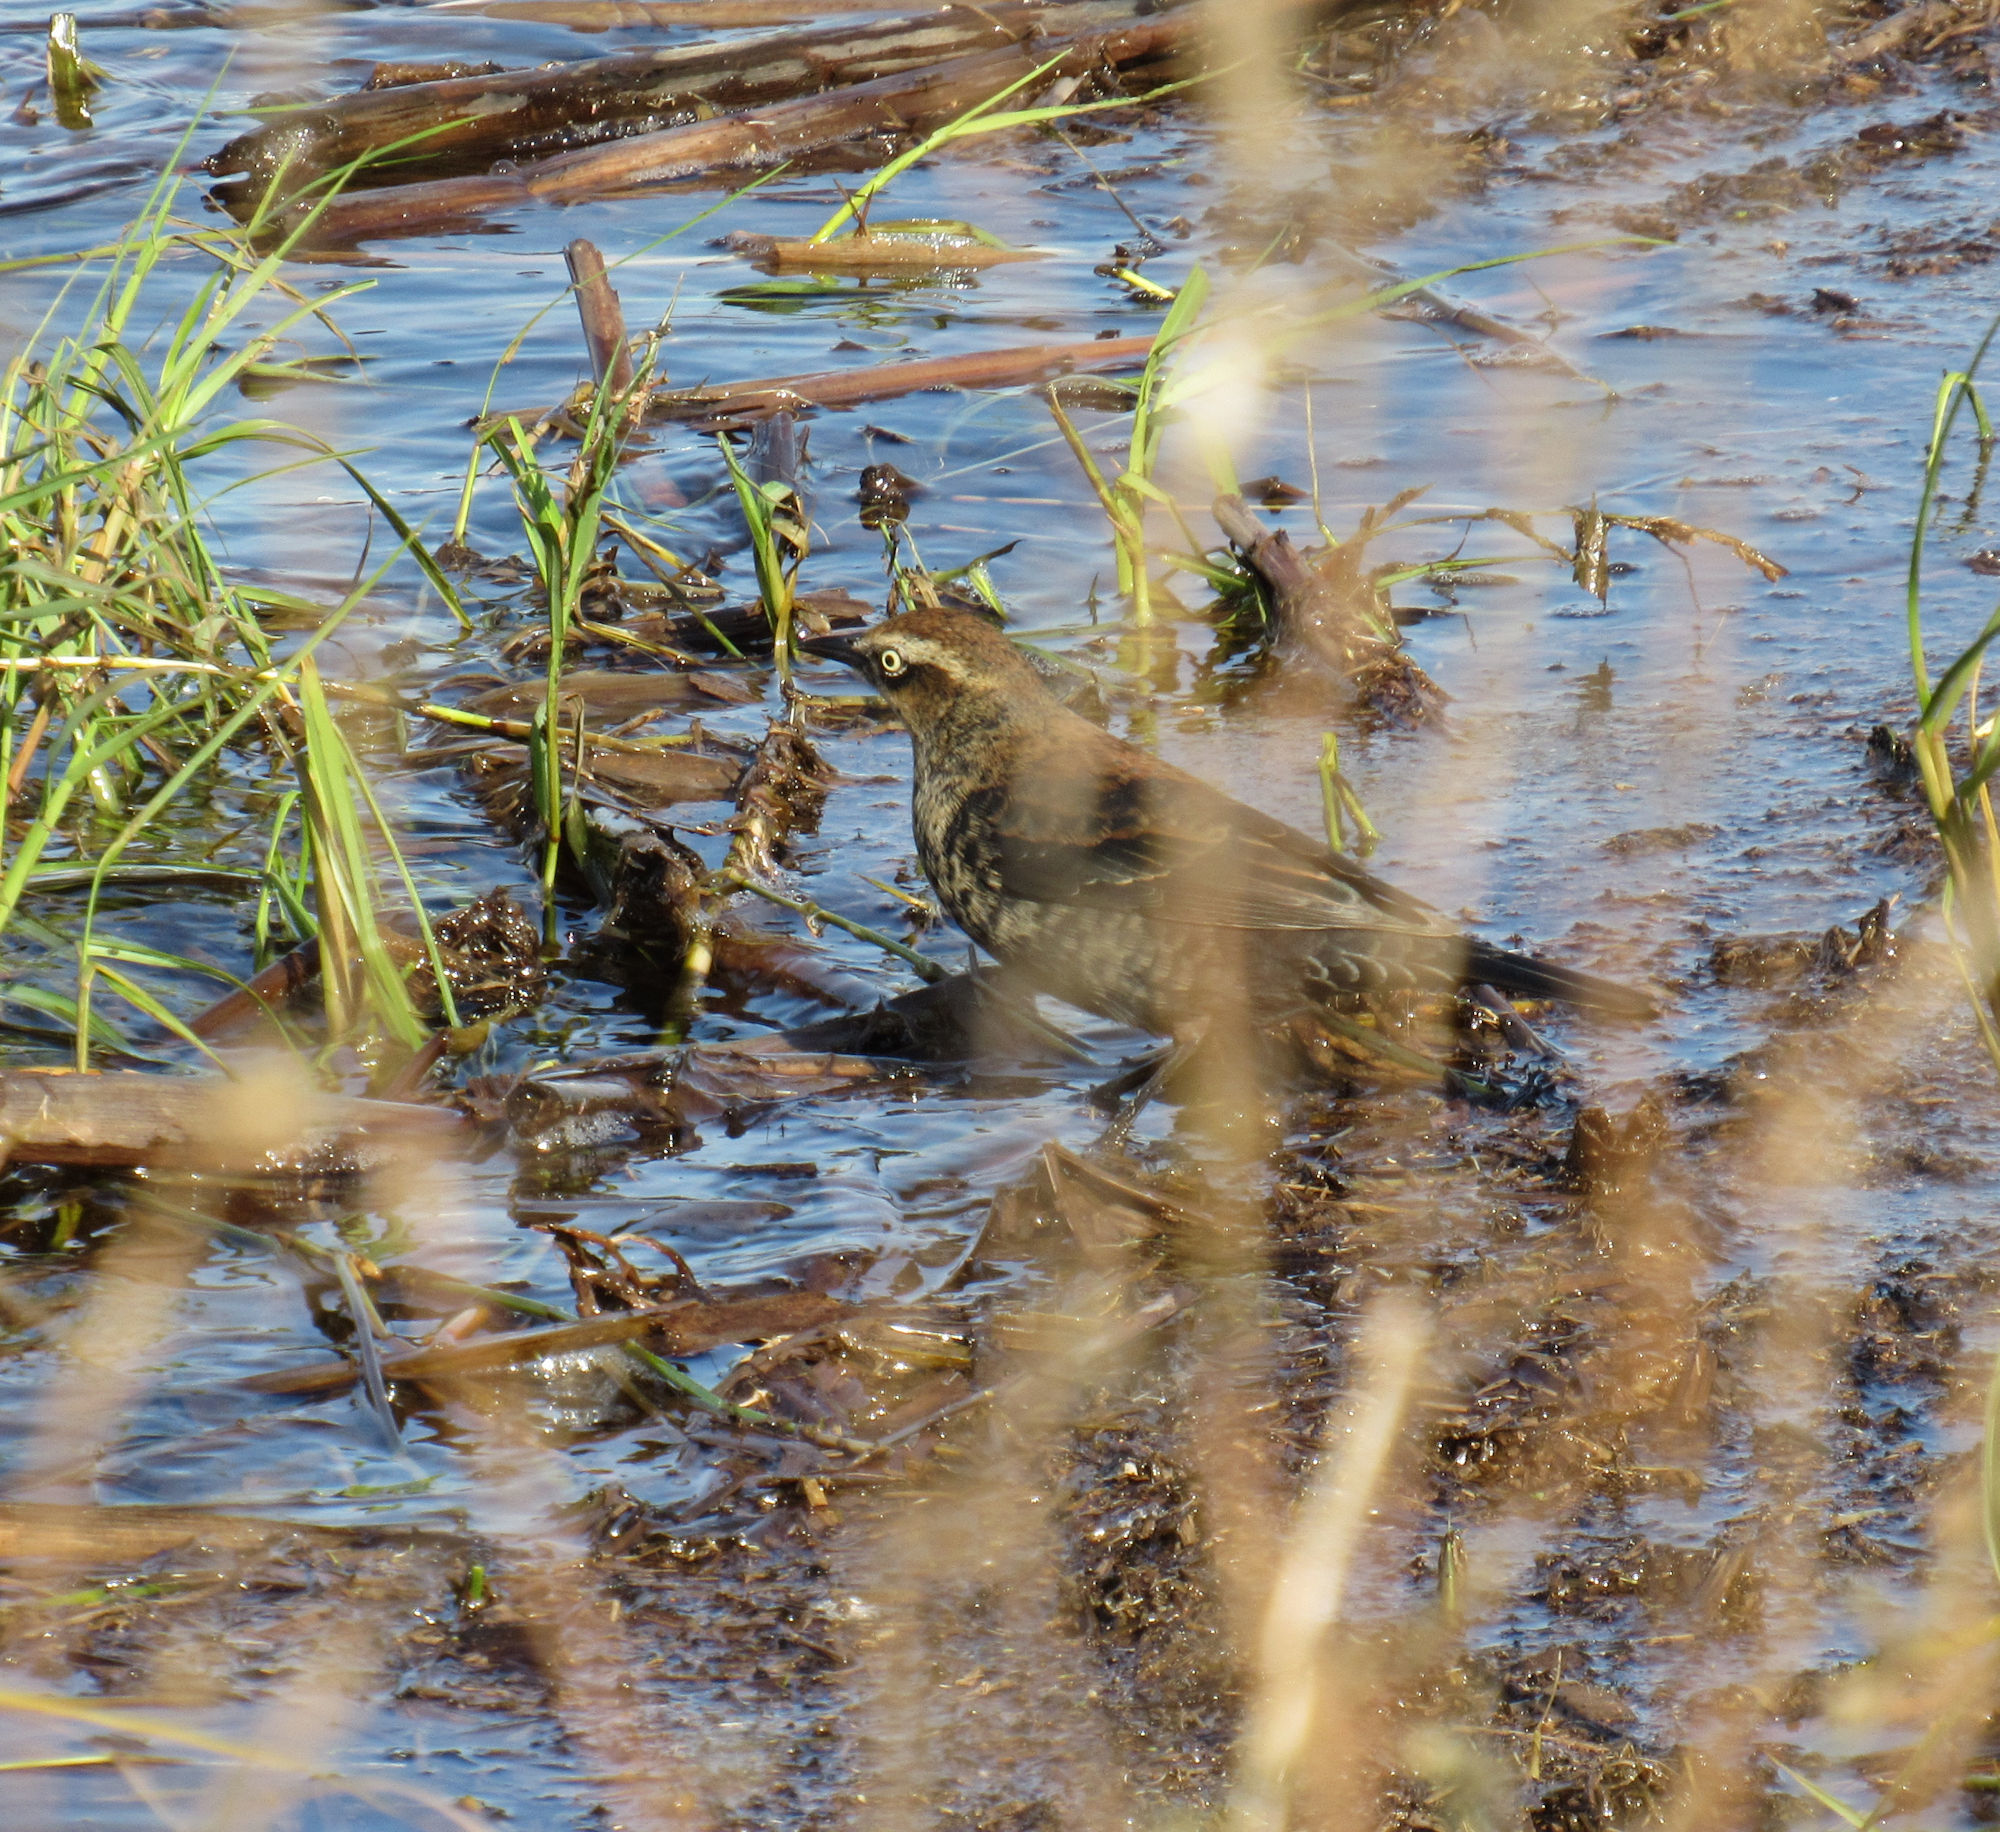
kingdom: Animalia
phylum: Chordata
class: Aves
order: Passeriformes
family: Icteridae
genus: Euphagus
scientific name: Euphagus carolinus
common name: Rusty blackbird
